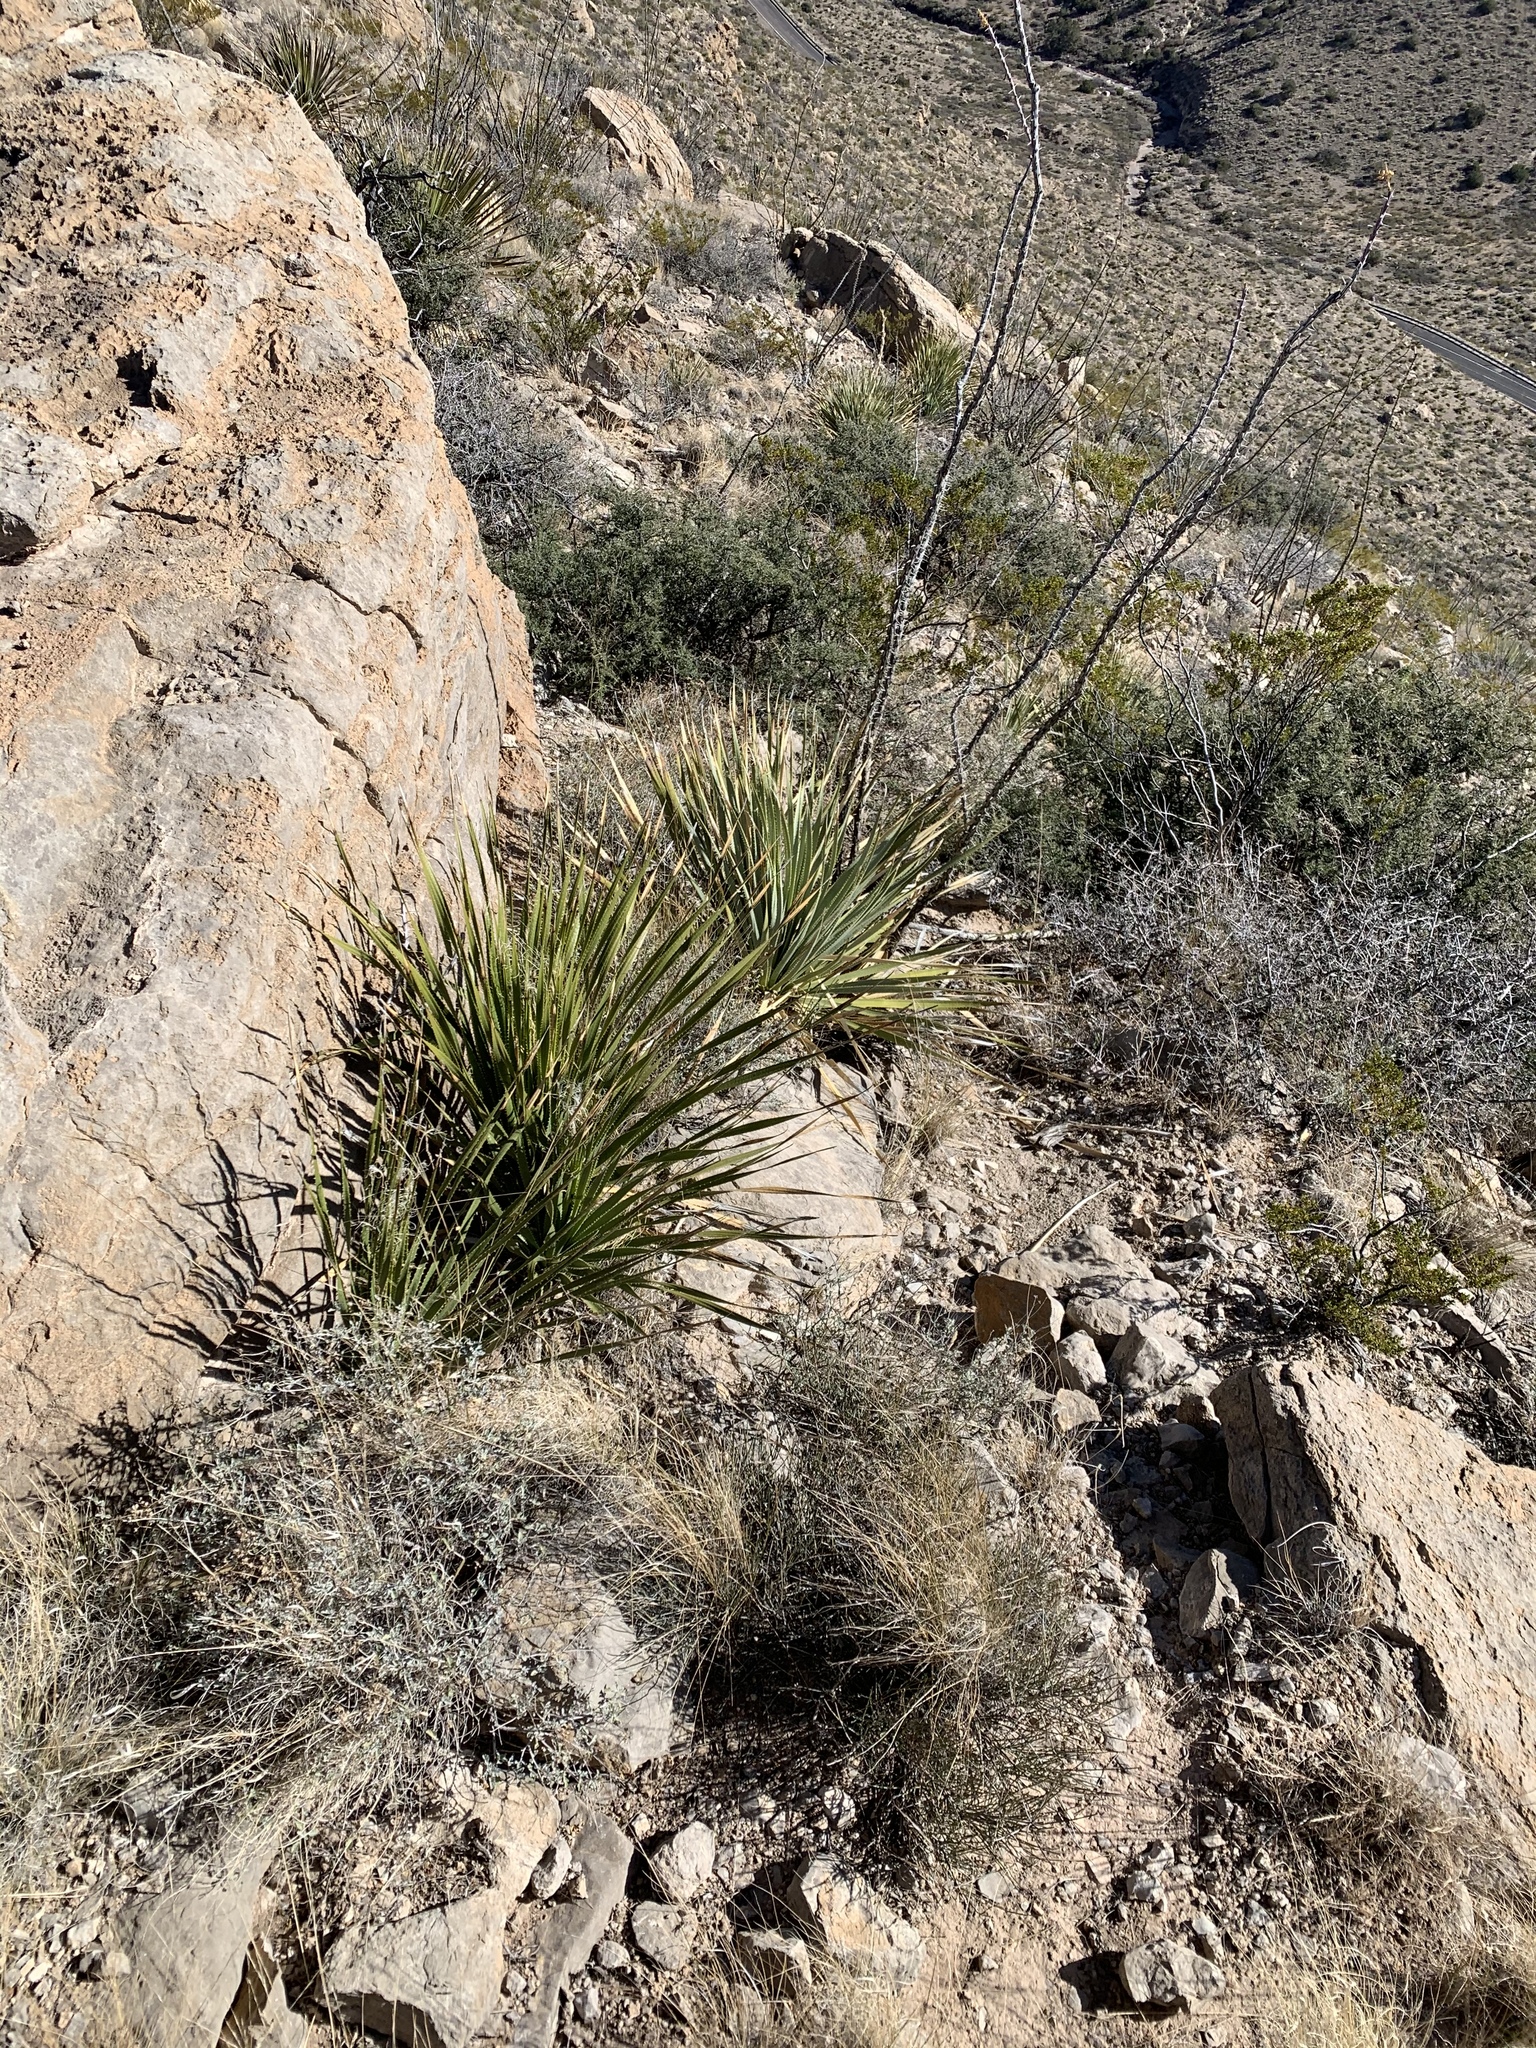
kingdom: Plantae
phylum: Tracheophyta
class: Liliopsida
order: Asparagales
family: Asparagaceae
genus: Dasylirion
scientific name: Dasylirion wheeleri
